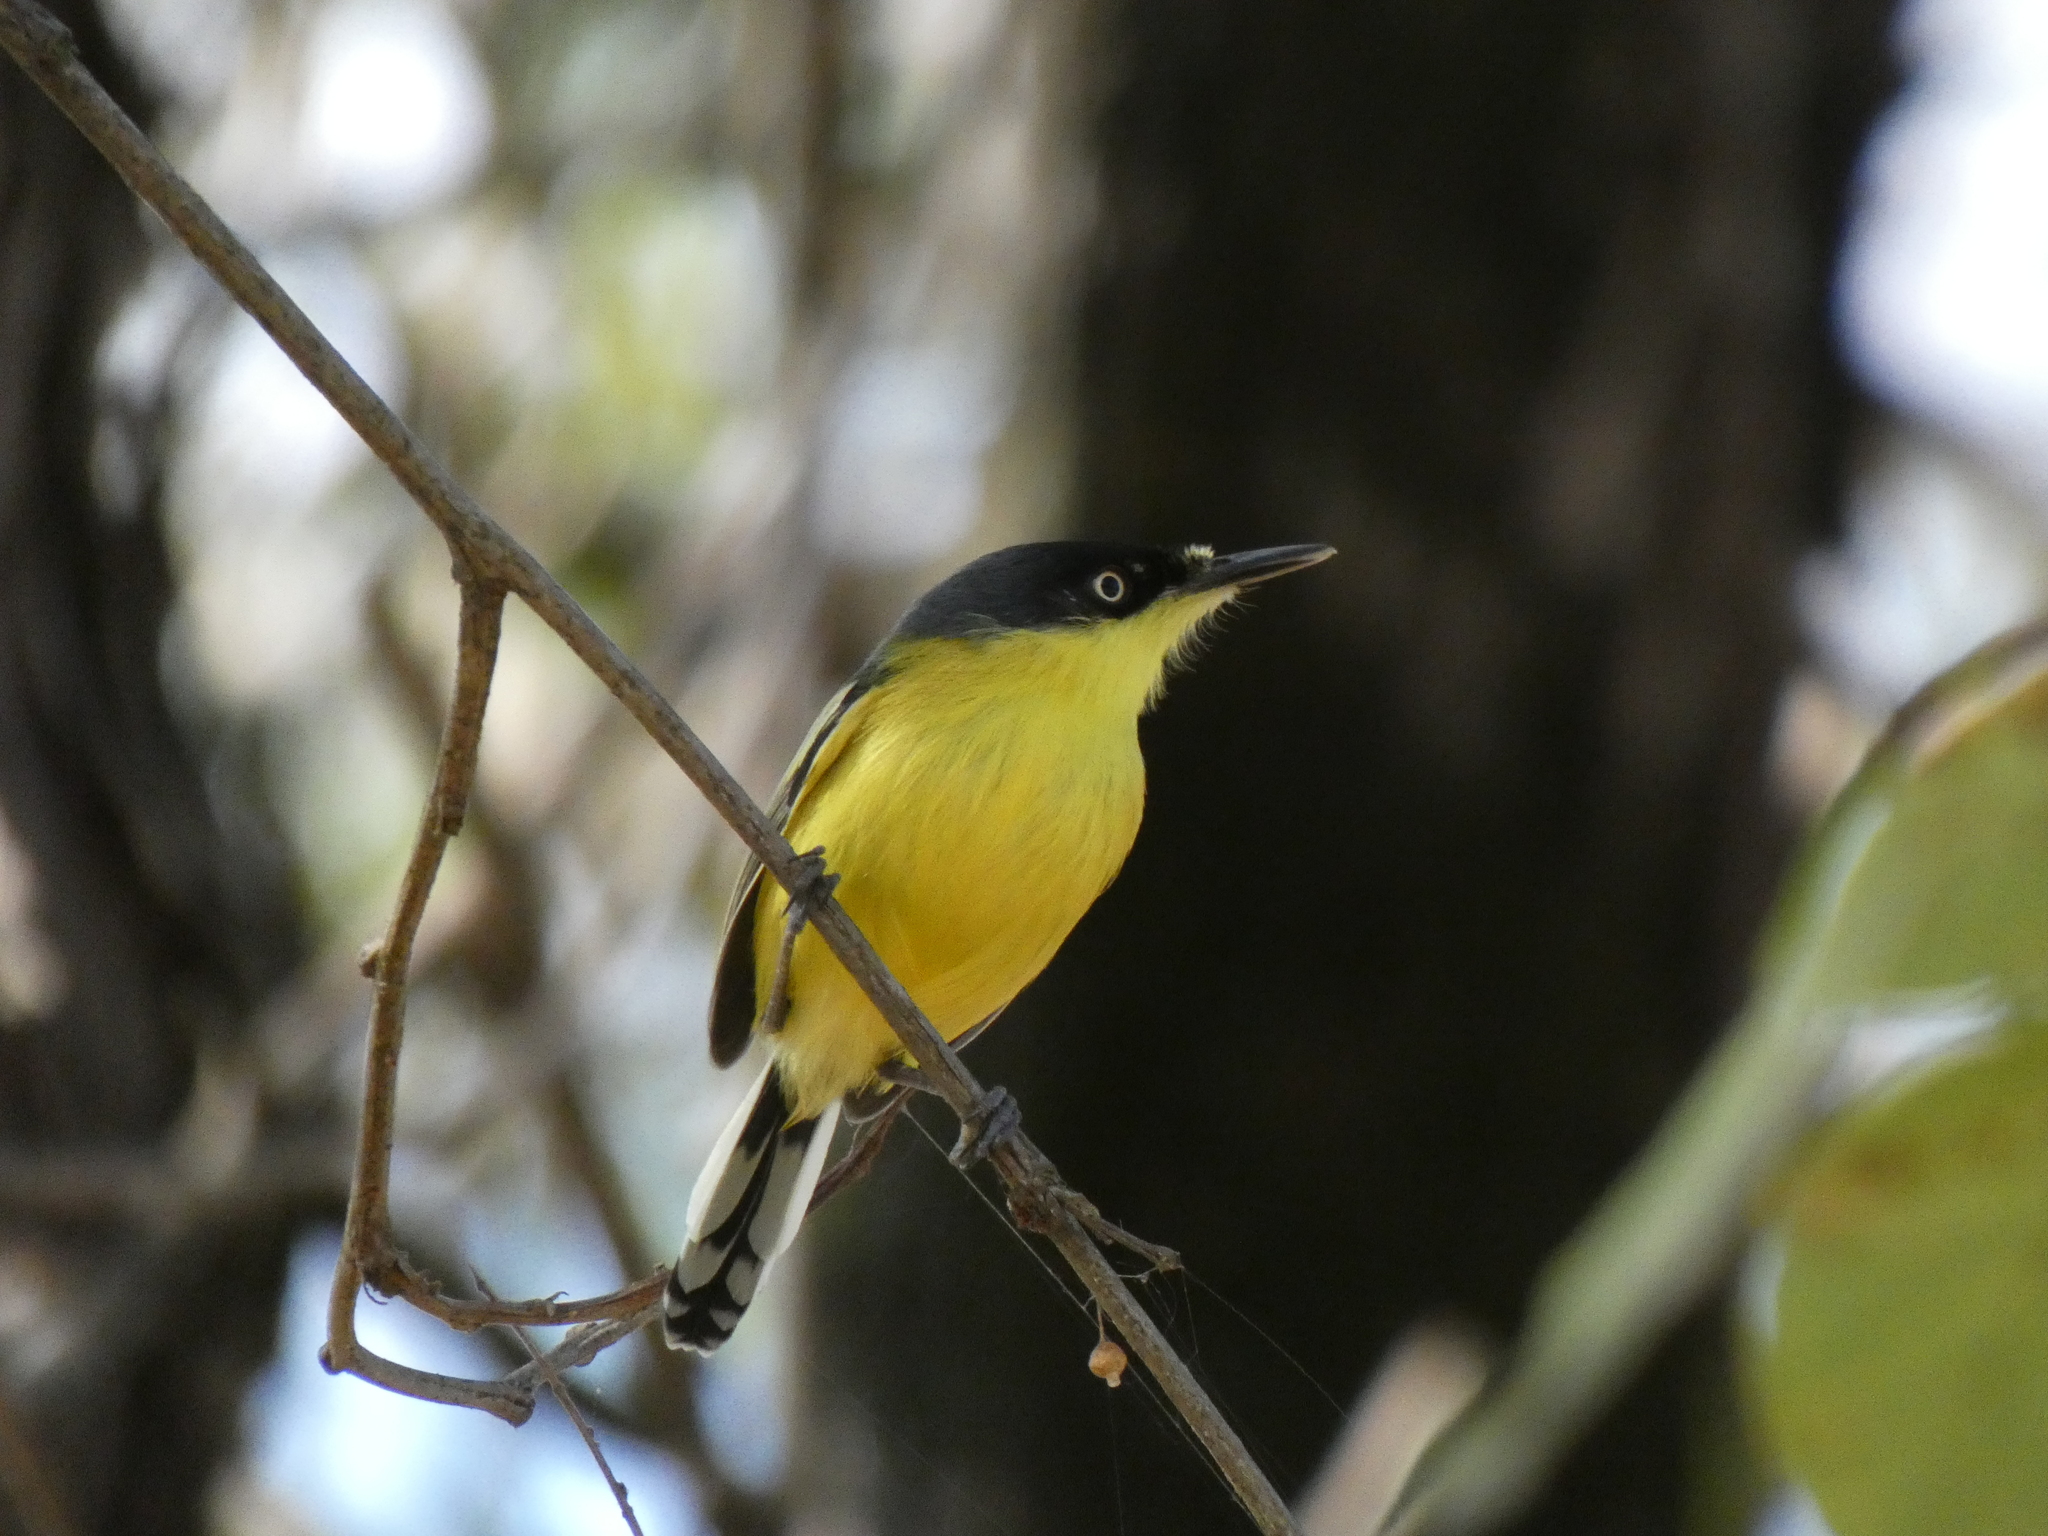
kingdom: Animalia
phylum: Chordata
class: Aves
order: Passeriformes
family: Tyrannidae
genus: Todirostrum
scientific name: Todirostrum cinereum
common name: Common tody-flycatcher
